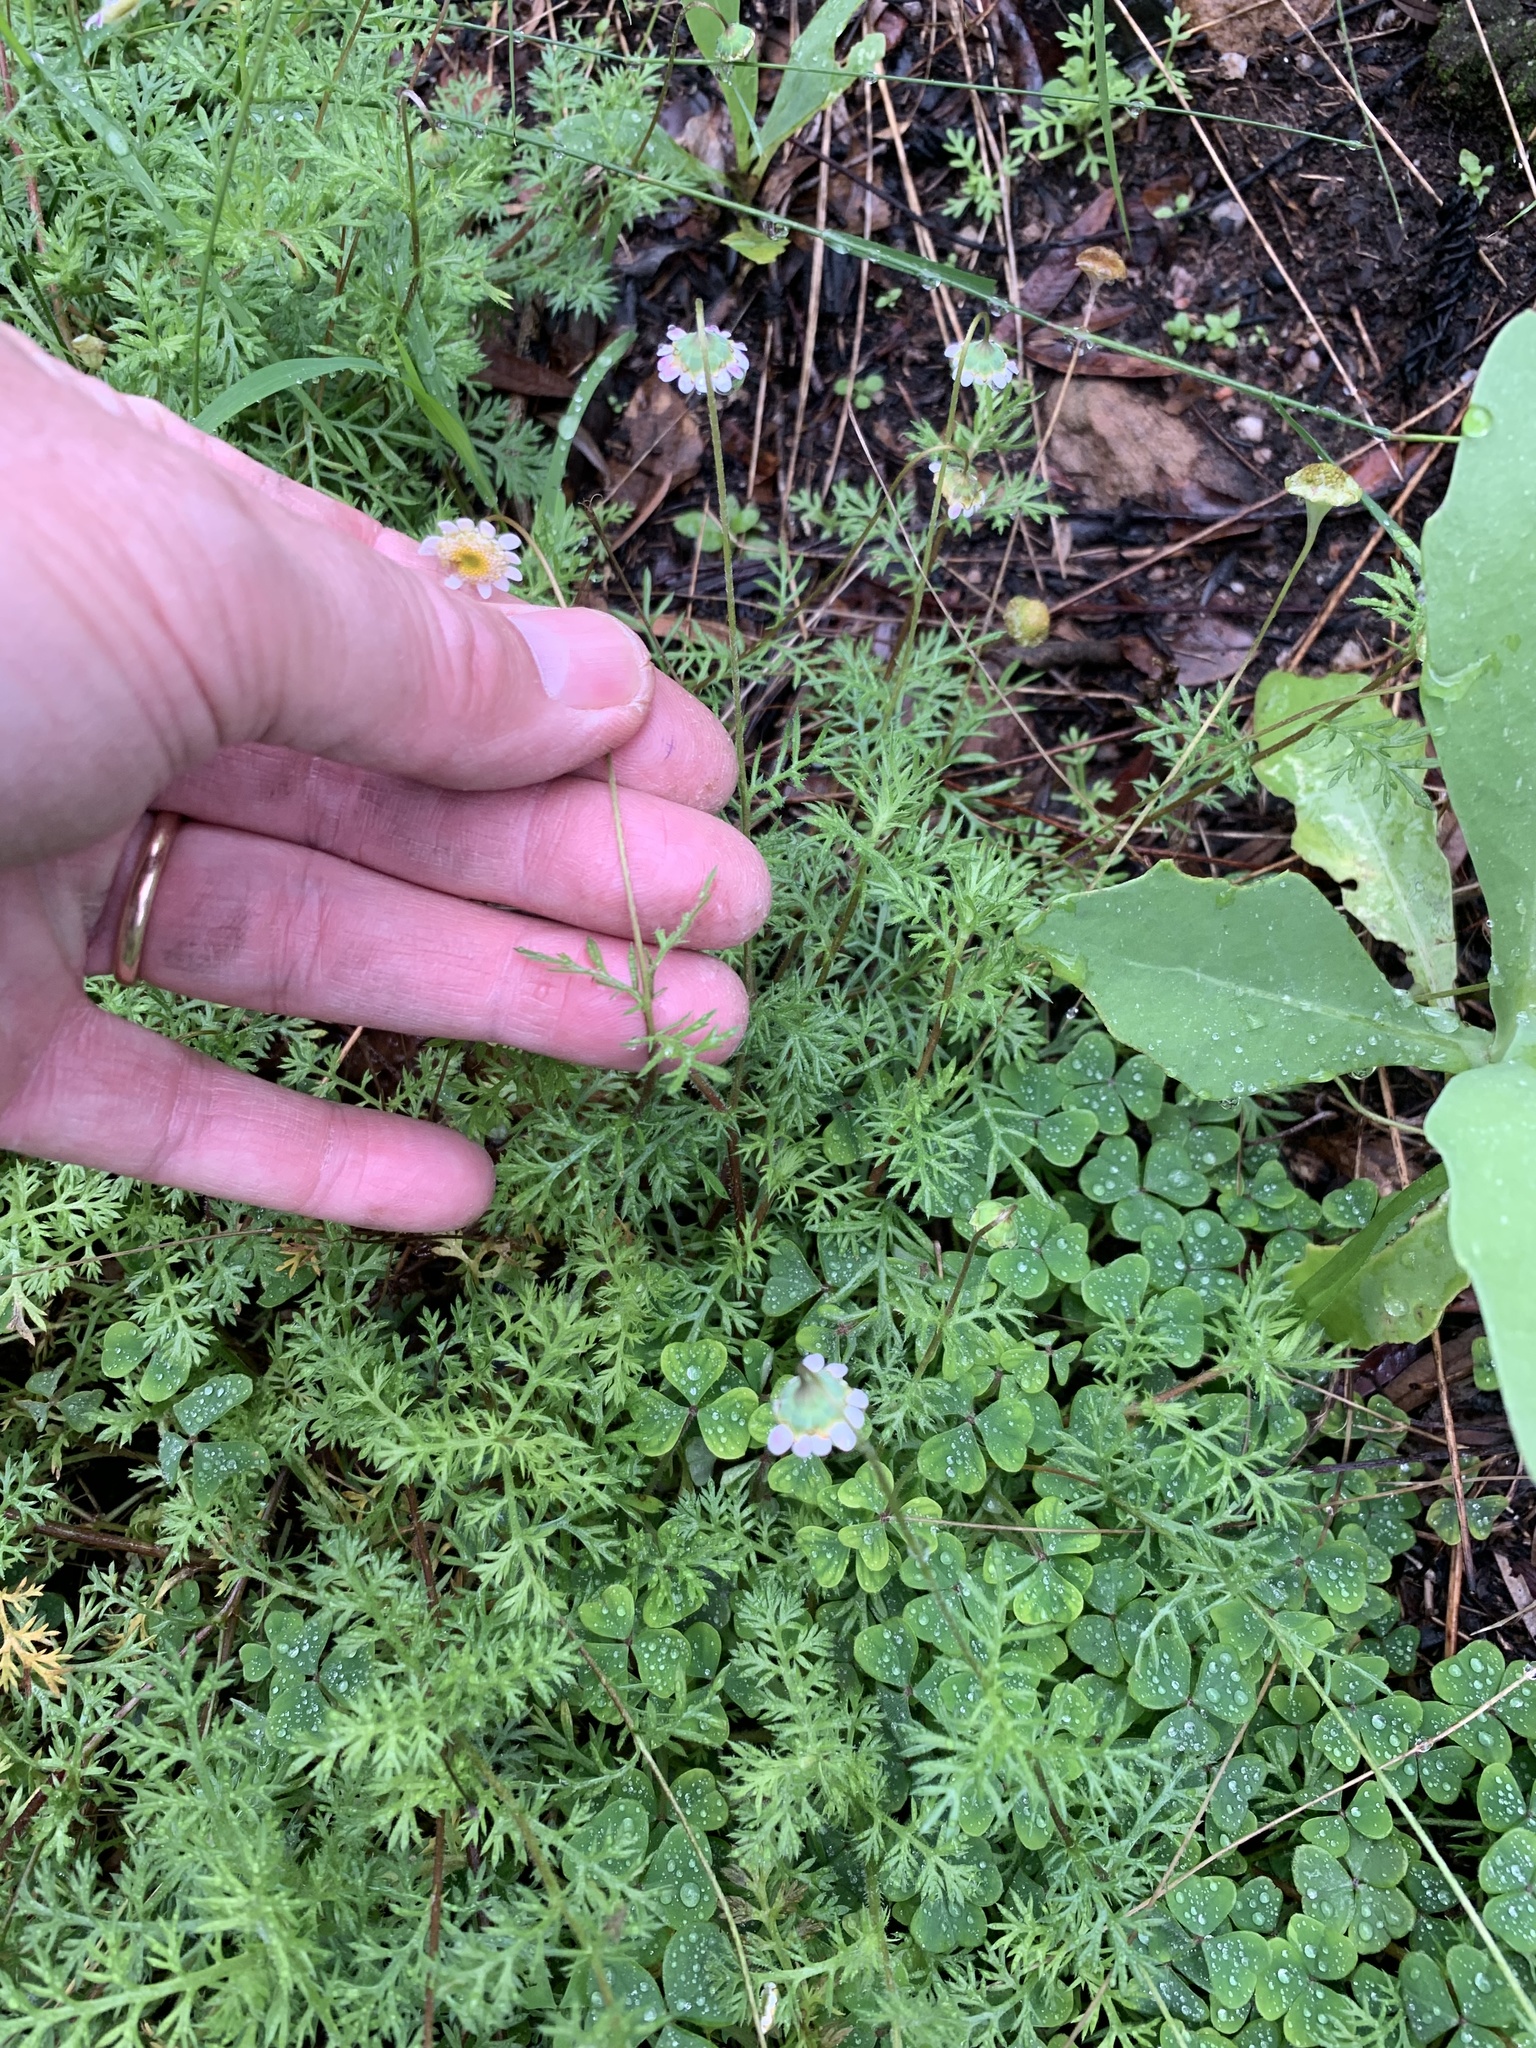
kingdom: Plantae
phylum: Tracheophyta
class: Magnoliopsida
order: Asterales
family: Asteraceae
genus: Cotula
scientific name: Cotula turbinata
